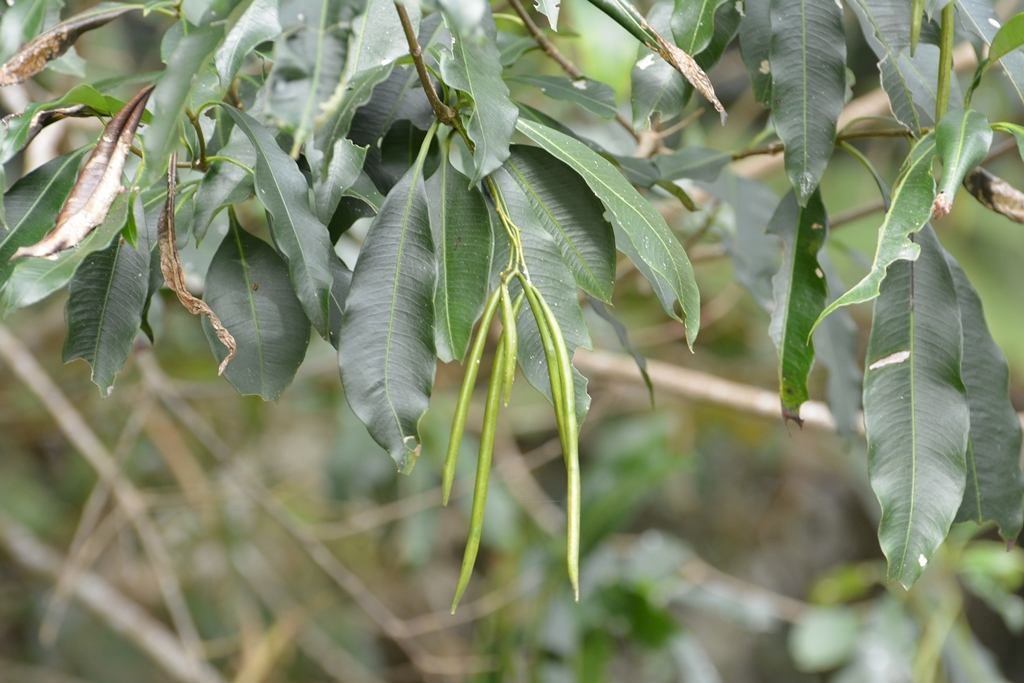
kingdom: Plantae
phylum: Tracheophyta
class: Magnoliopsida
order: Gentianales
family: Apocynaceae
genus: Tonduzia
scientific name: Tonduzia longifolia
